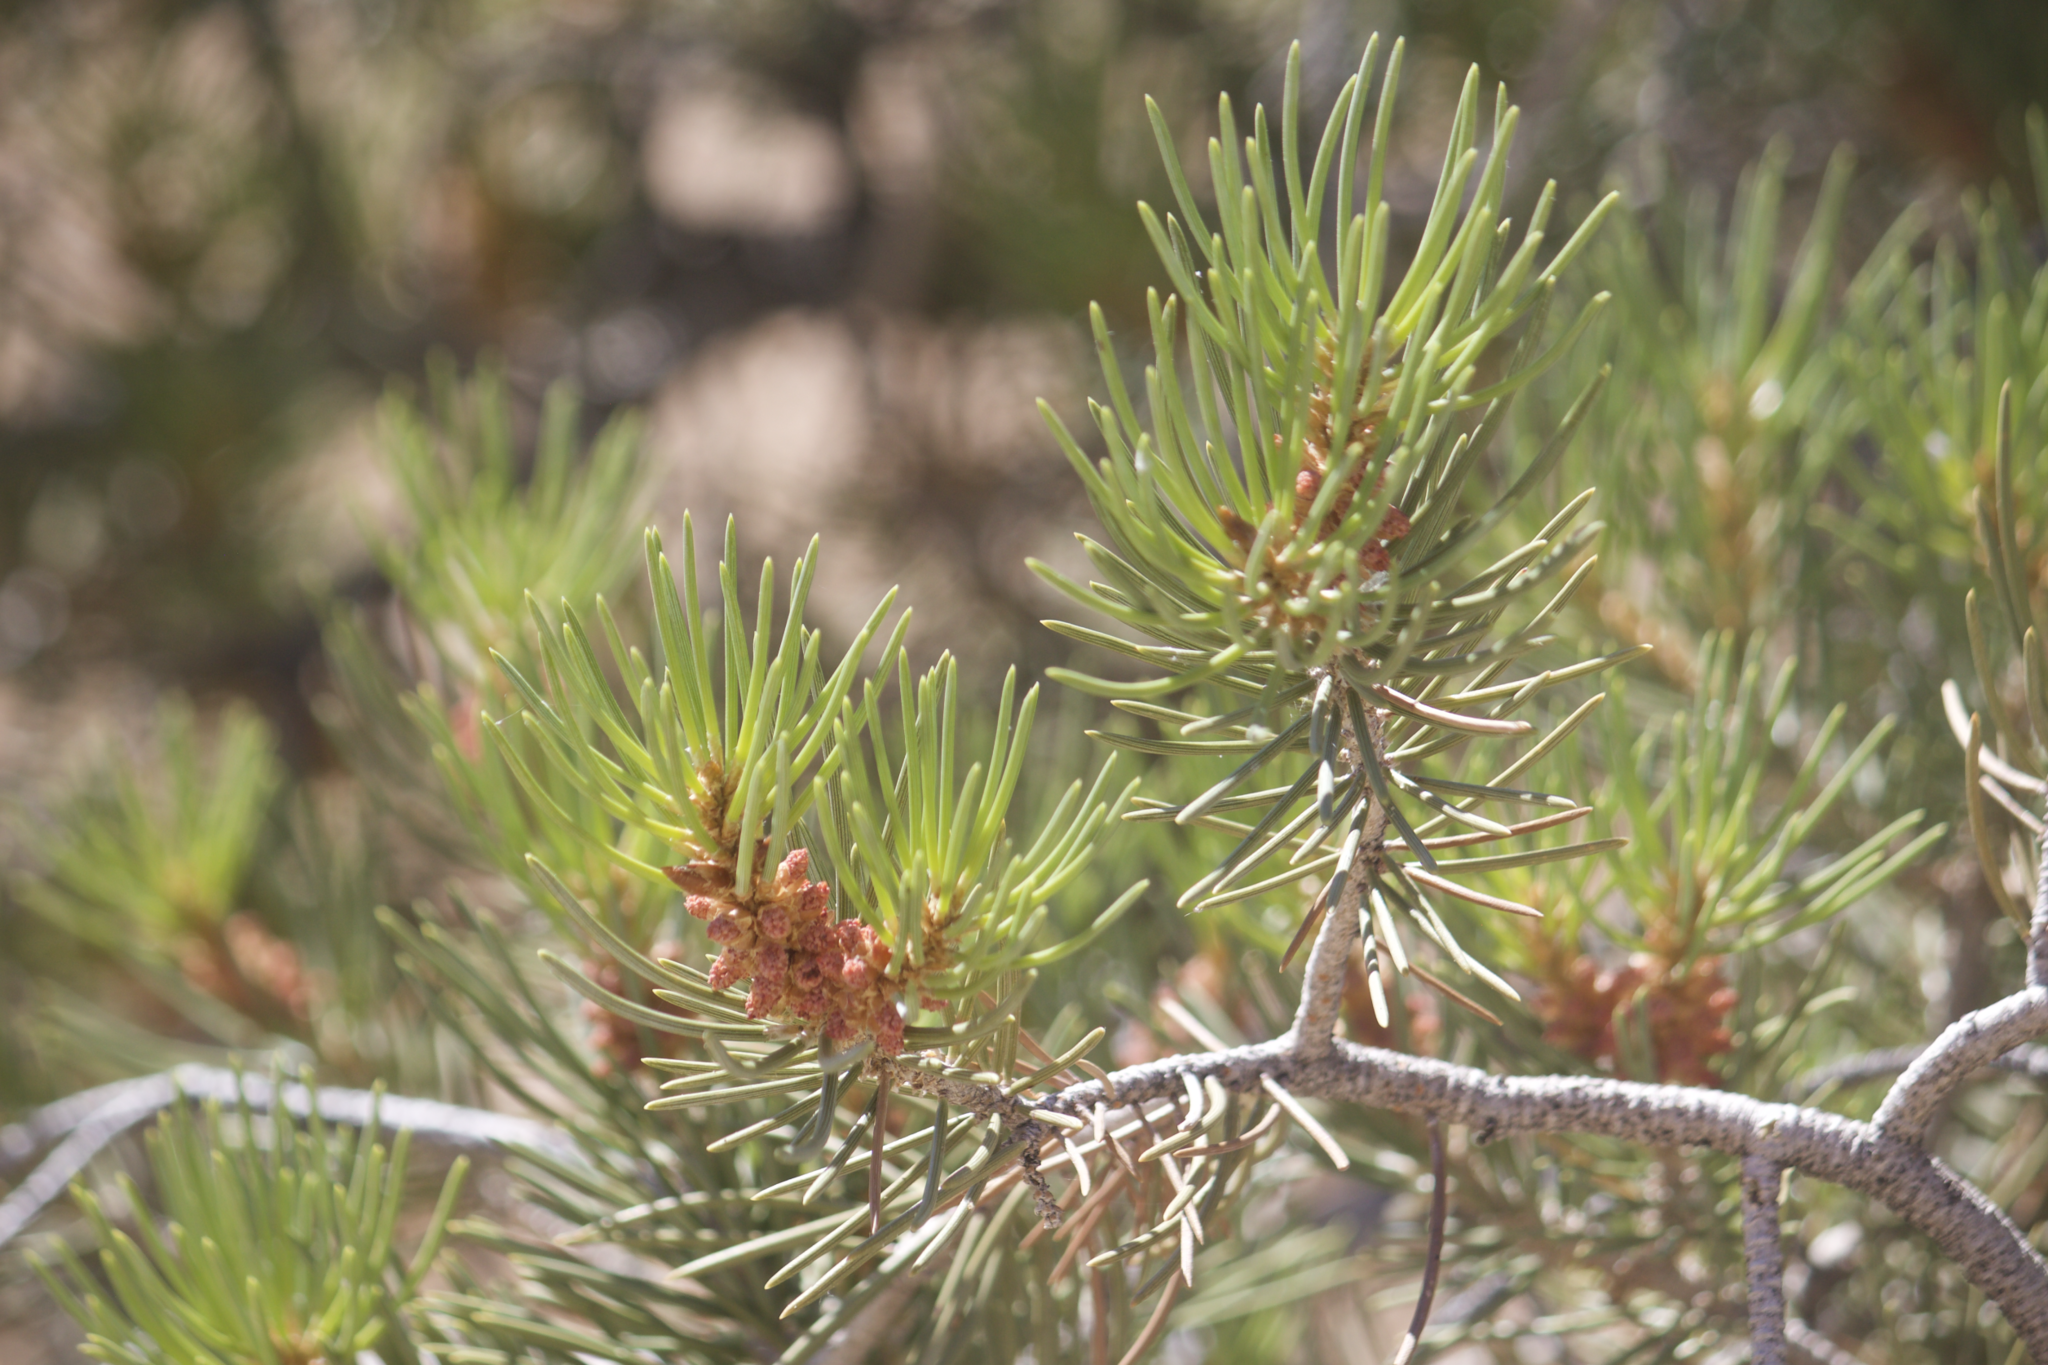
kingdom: Plantae
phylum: Tracheophyta
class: Pinopsida
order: Pinales
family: Pinaceae
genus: Pinus
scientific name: Pinus monophylla
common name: One-leaved nut pine
